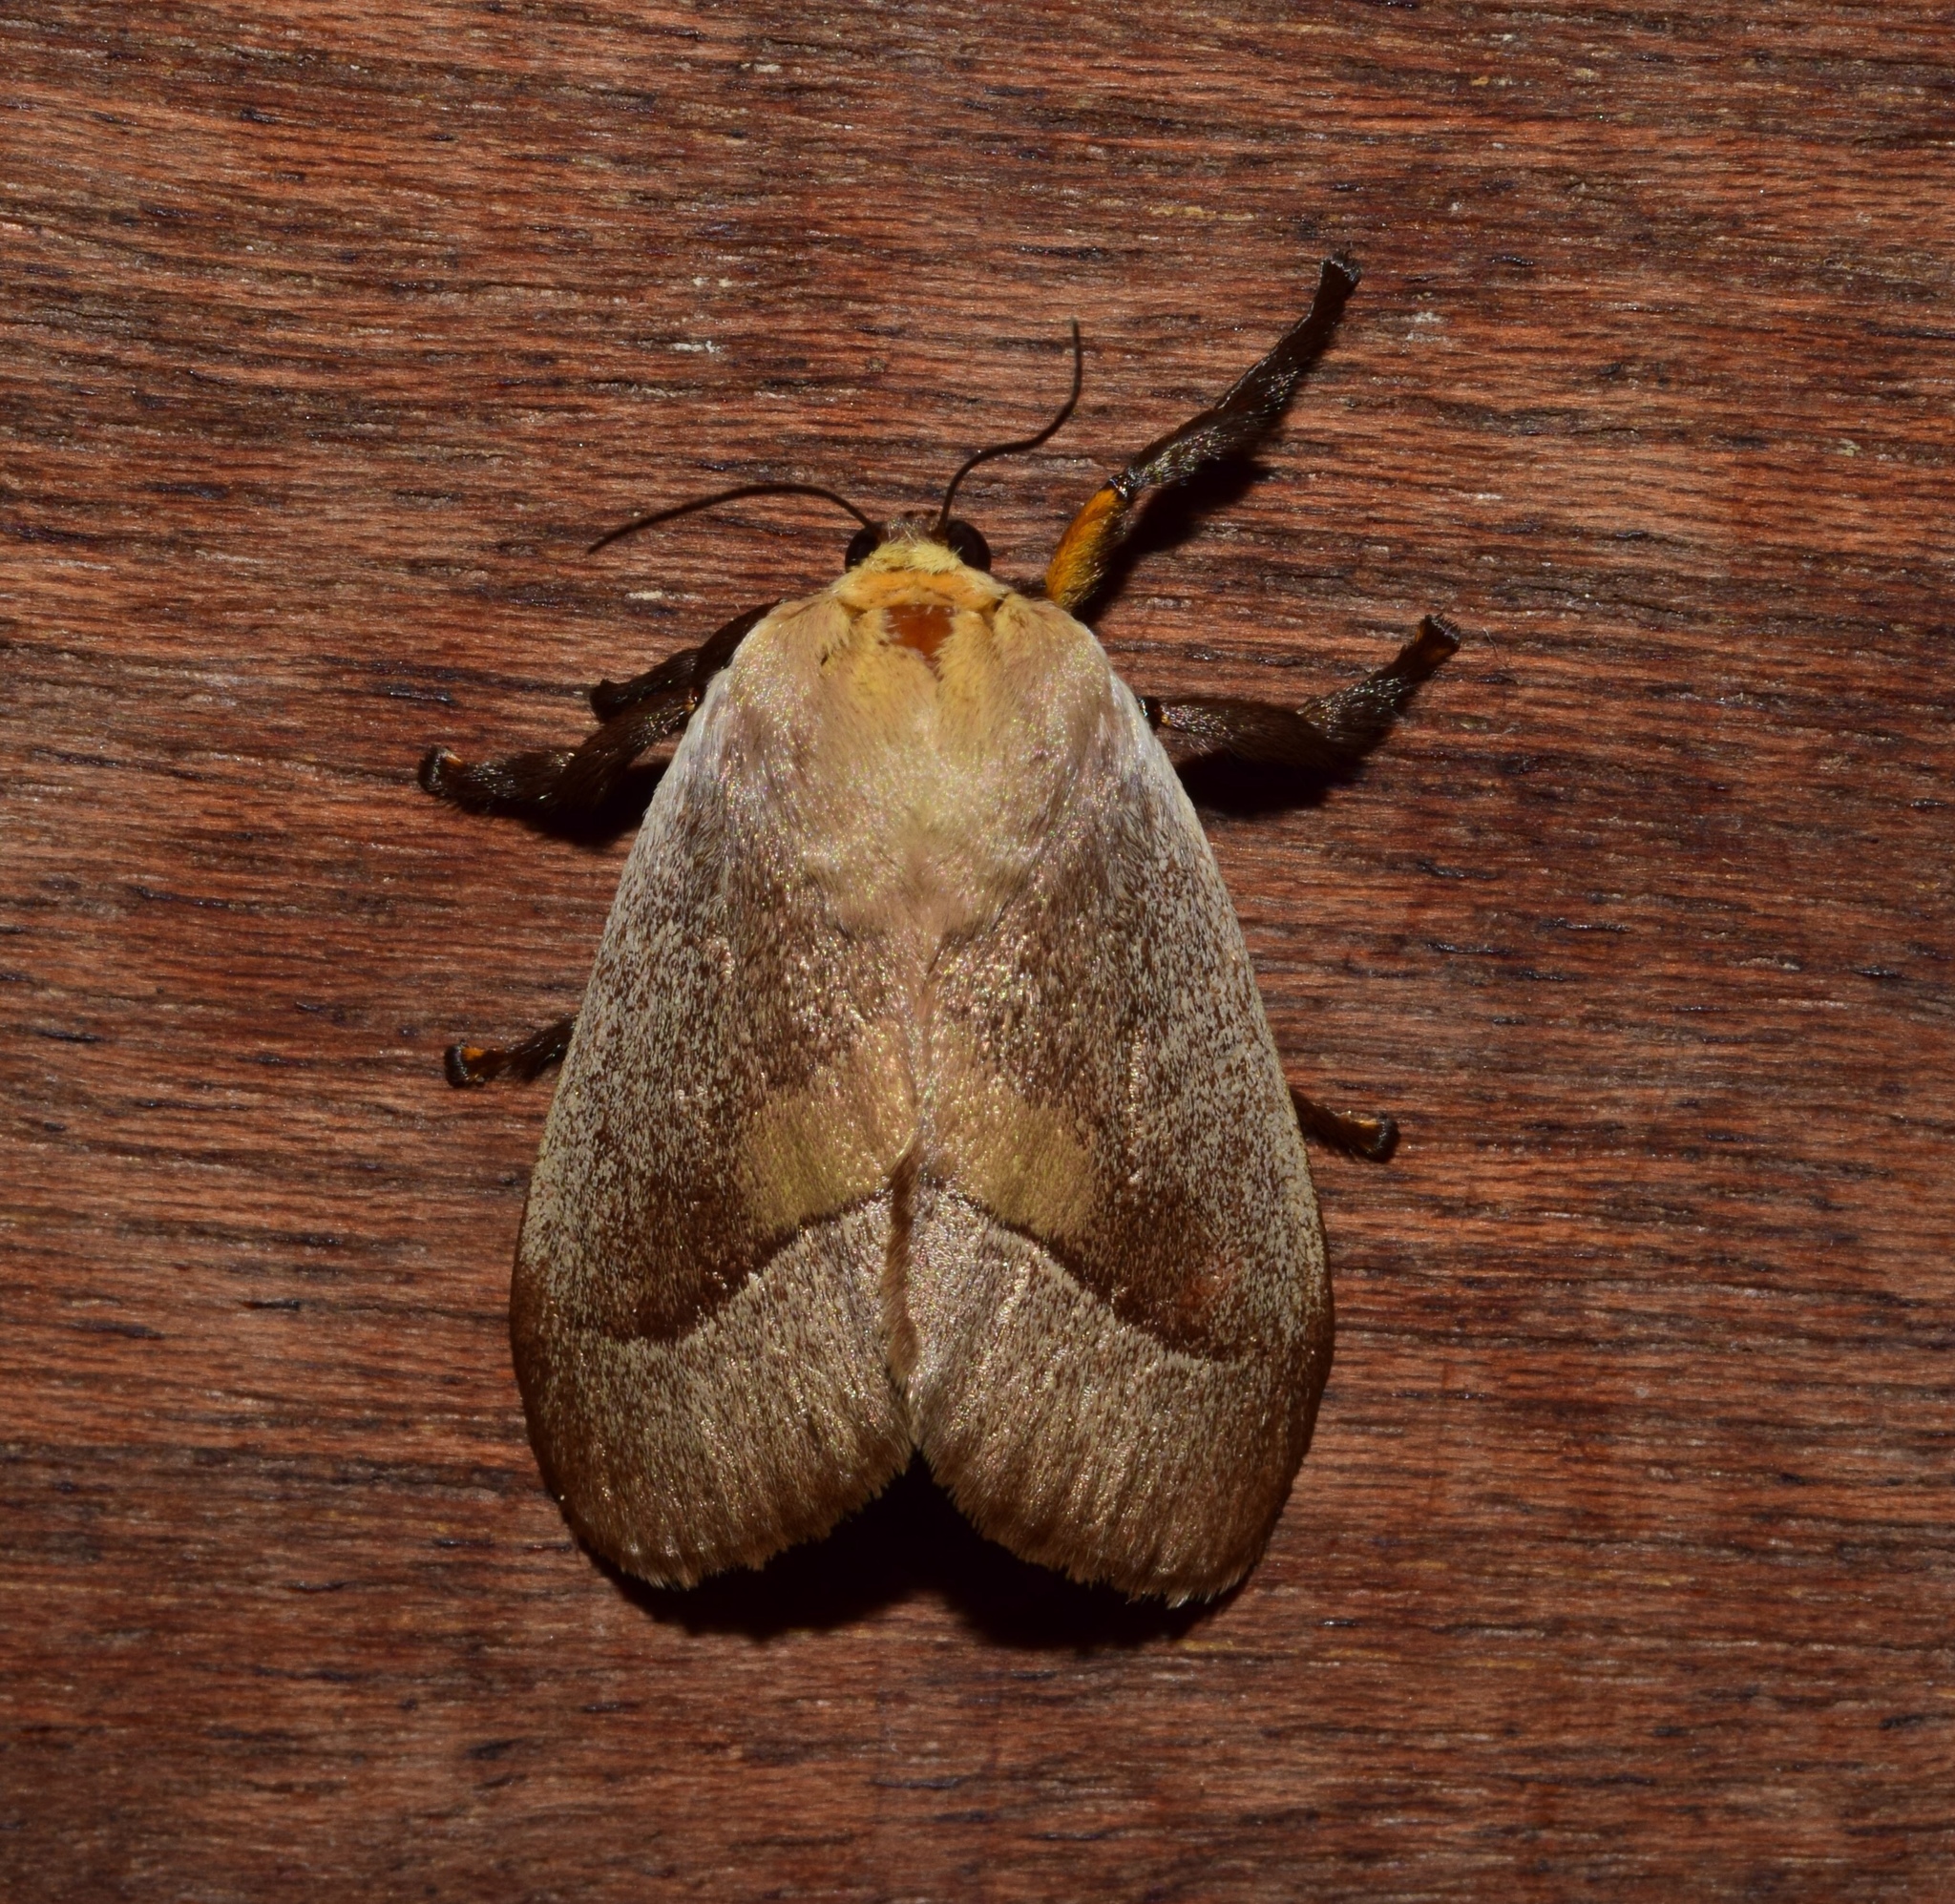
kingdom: Animalia
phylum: Arthropoda
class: Insecta
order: Lepidoptera
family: Limacodidae
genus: Latoia
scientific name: Latoia intermissa
